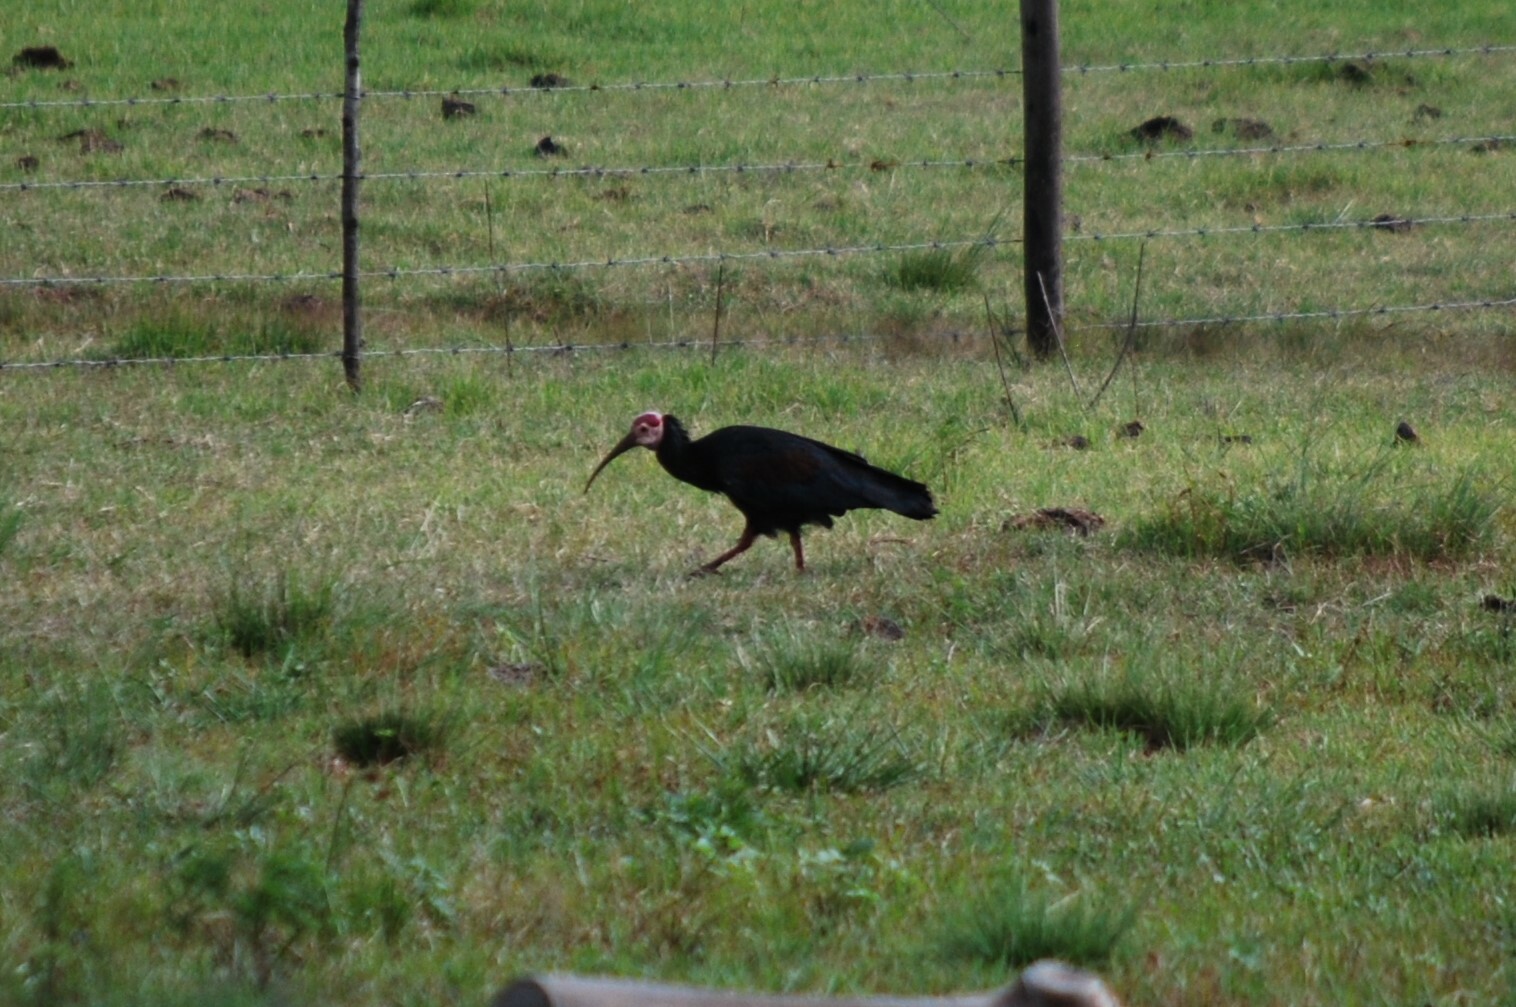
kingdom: Animalia
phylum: Chordata
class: Aves
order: Pelecaniformes
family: Threskiornithidae
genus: Geronticus
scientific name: Geronticus calvus
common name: Southern bald ibis
